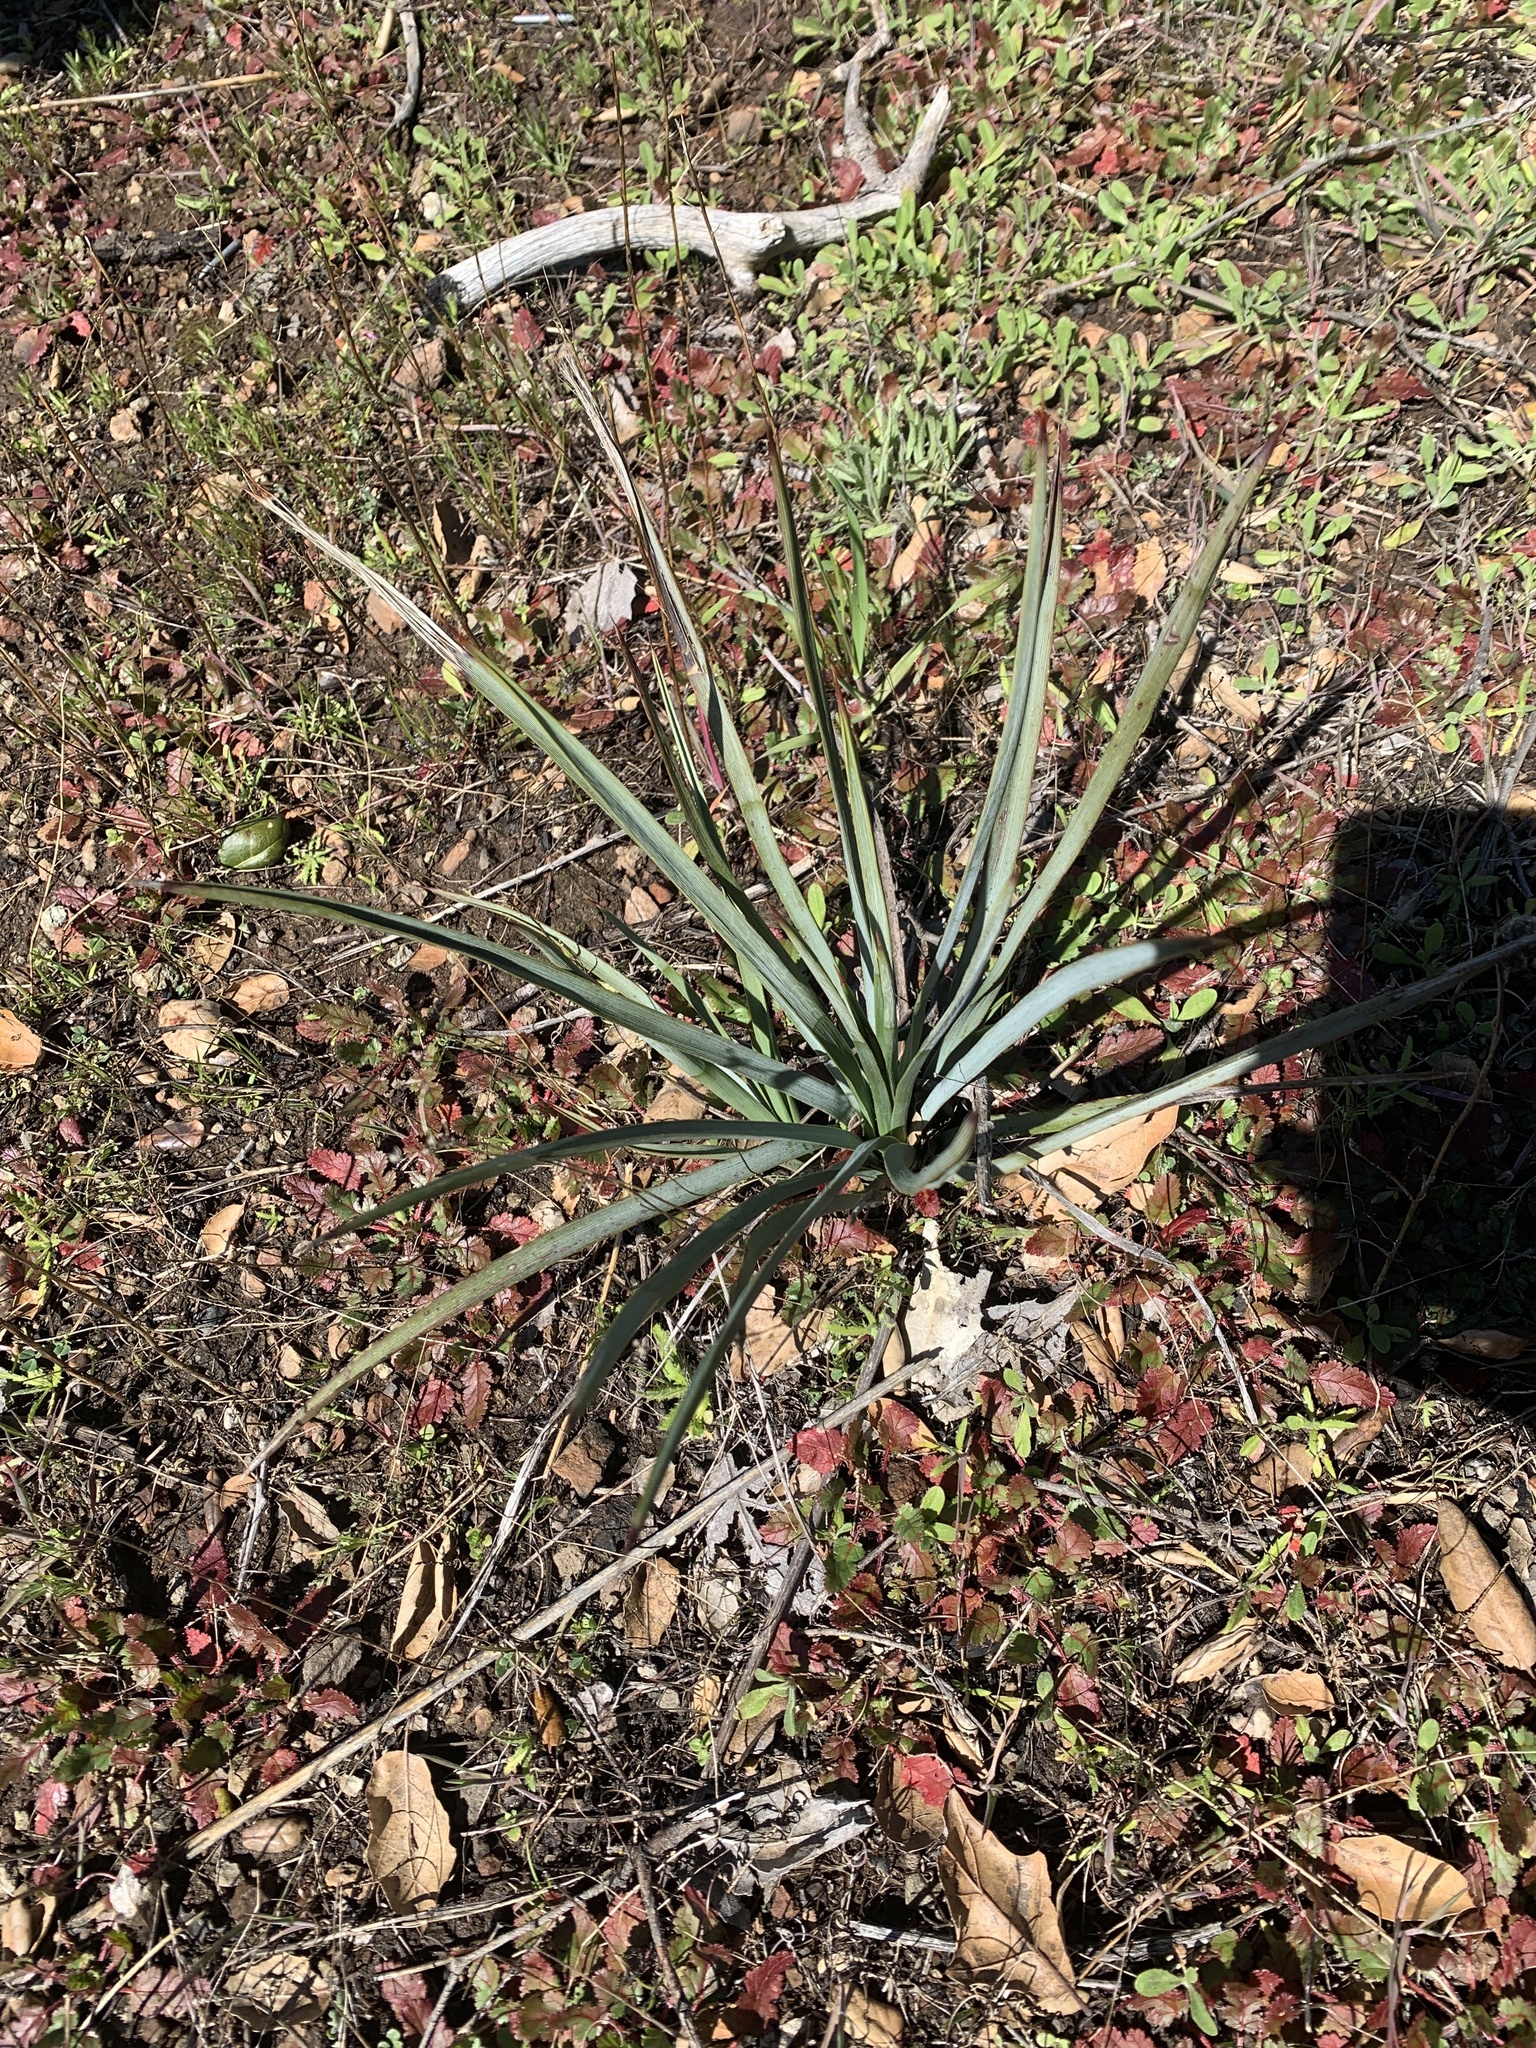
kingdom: Plantae
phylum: Tracheophyta
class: Liliopsida
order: Asparagales
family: Asparagaceae
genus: Hesperoyucca
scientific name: Hesperoyucca whipplei
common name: Our lord's-candle
